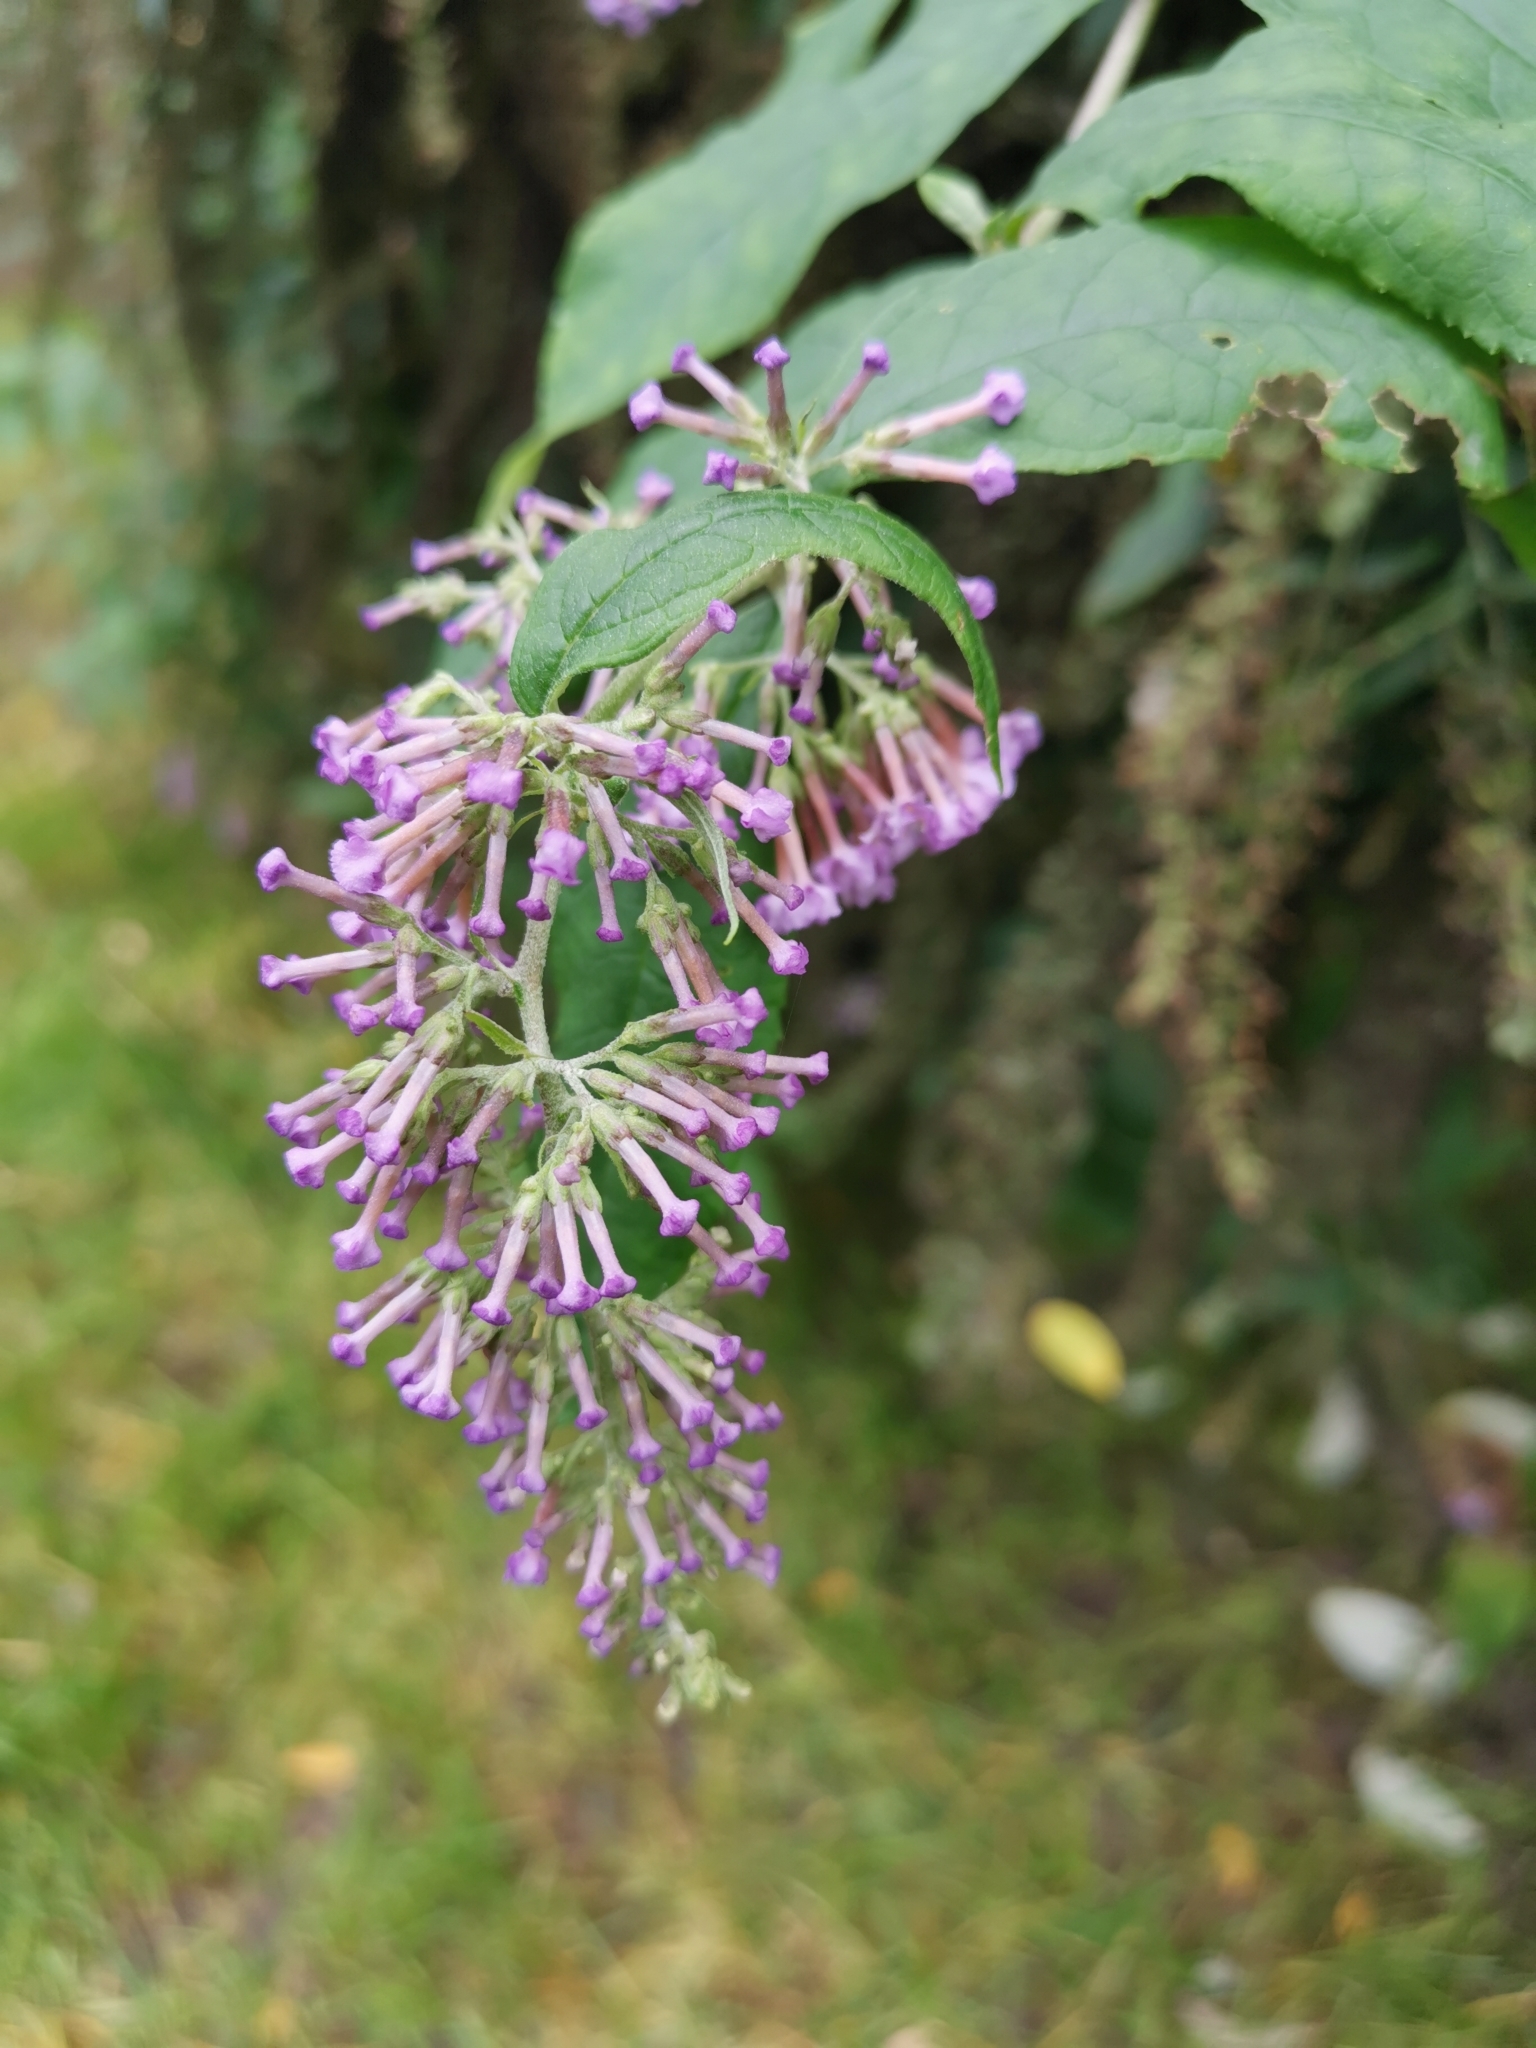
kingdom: Plantae
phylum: Tracheophyta
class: Magnoliopsida
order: Lamiales
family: Scrophulariaceae
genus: Buddleja
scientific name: Buddleja davidii
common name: Butterfly-bush
